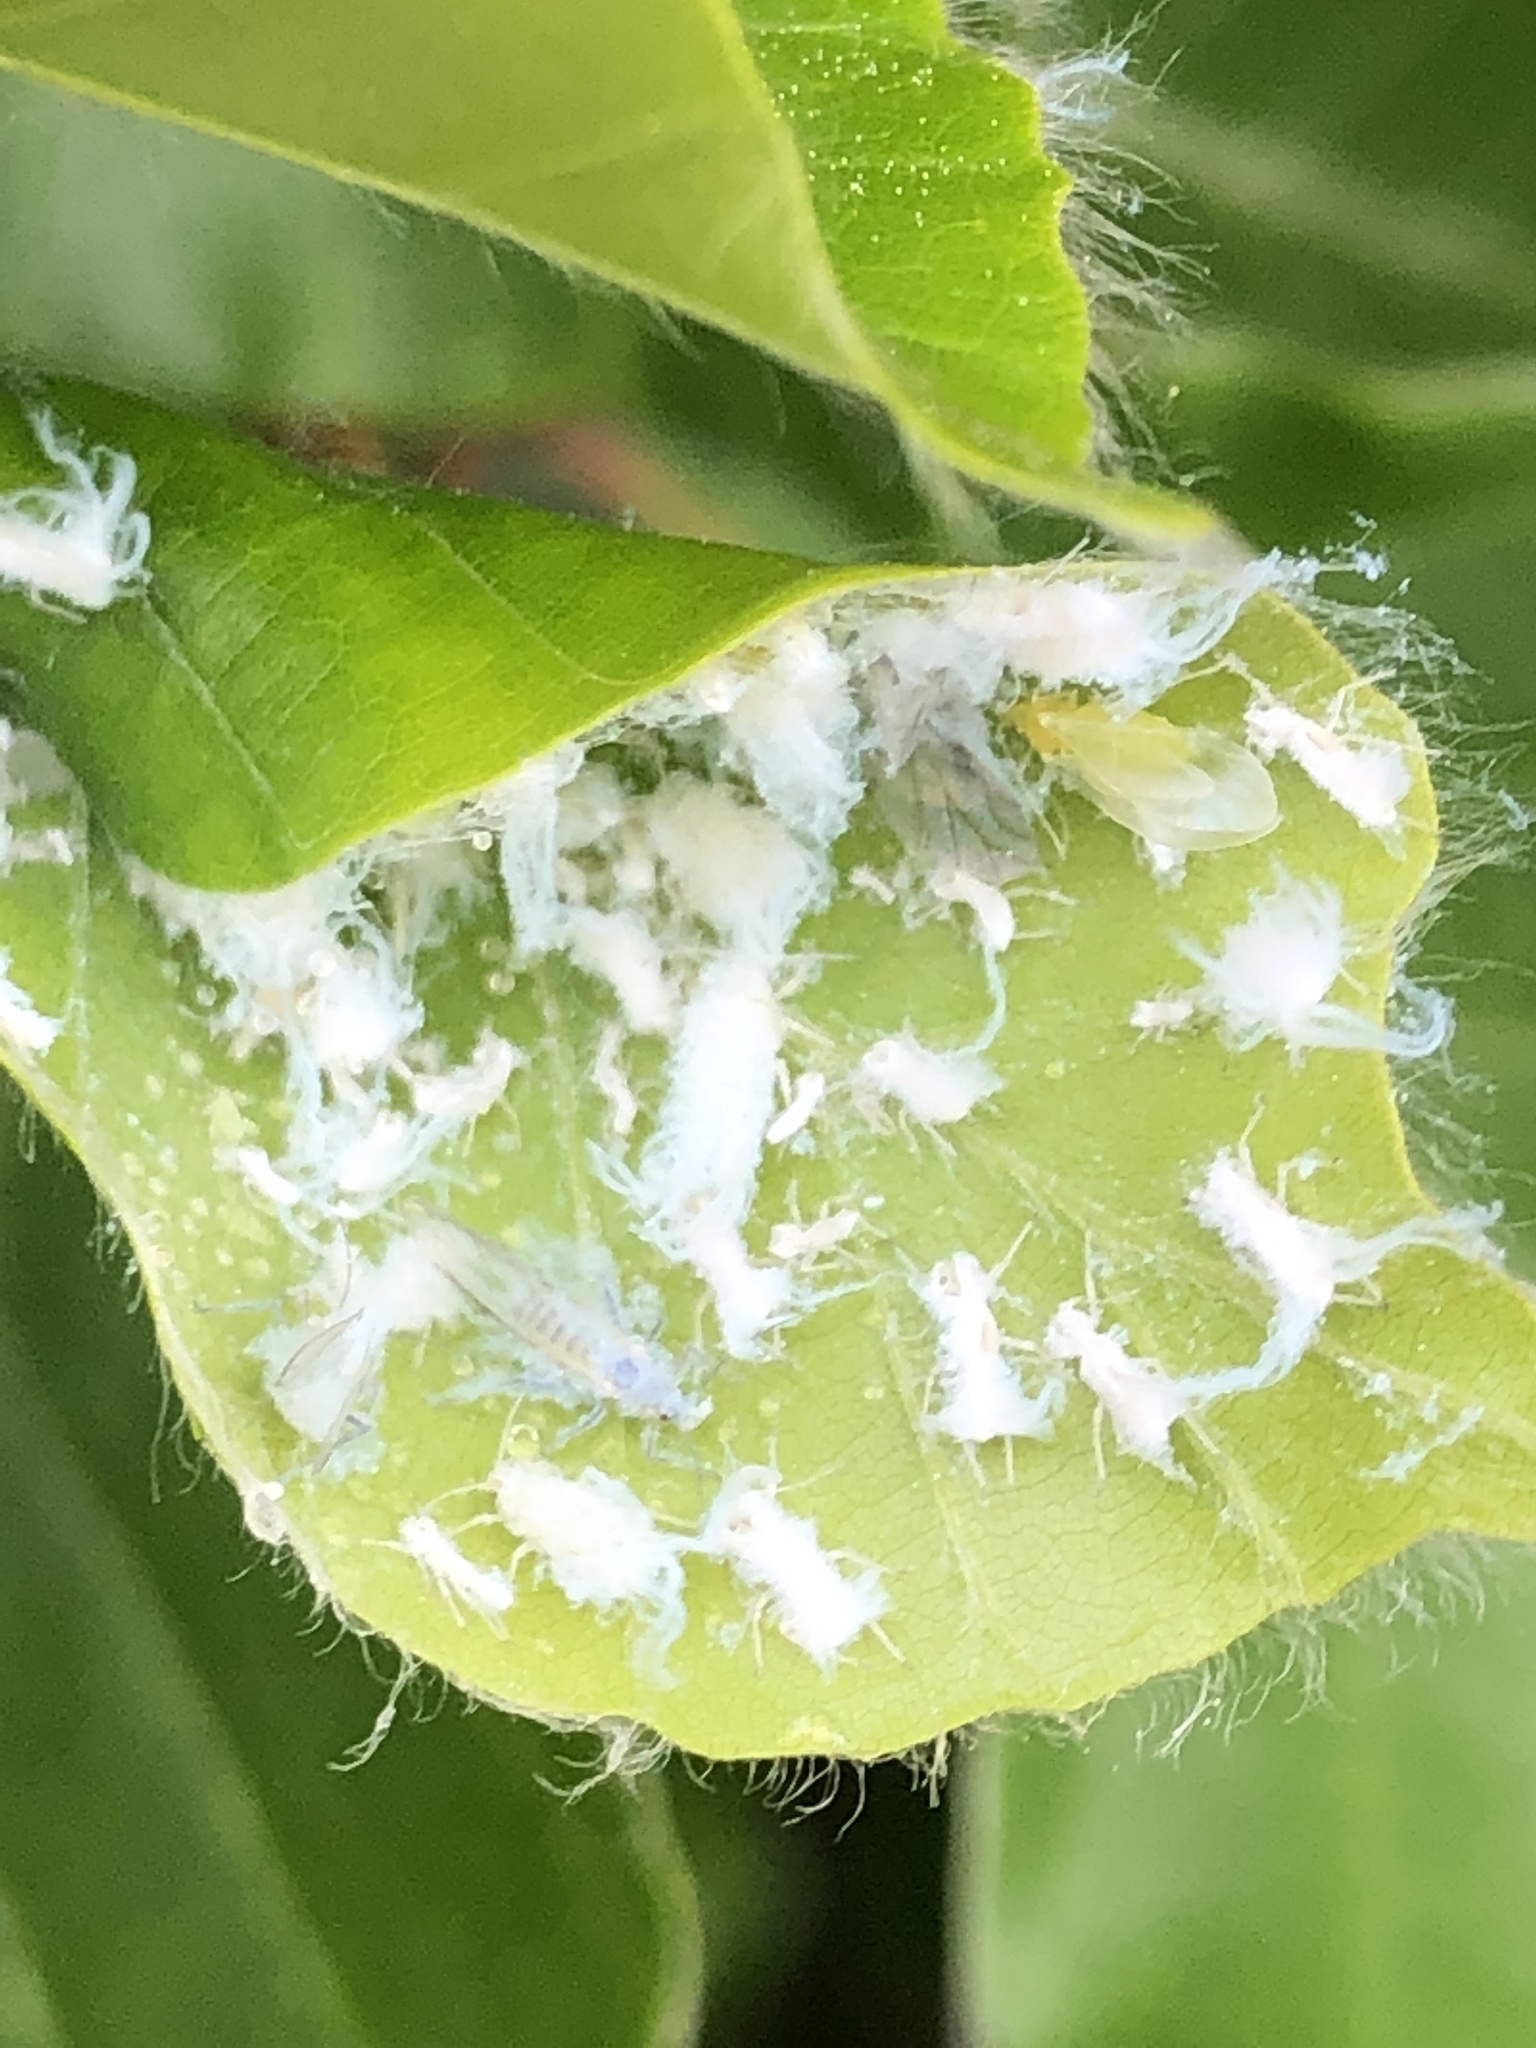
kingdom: Animalia
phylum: Arthropoda
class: Insecta
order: Hemiptera
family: Aphididae
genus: Phyllaphis
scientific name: Phyllaphis fagi
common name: Beech aphid
